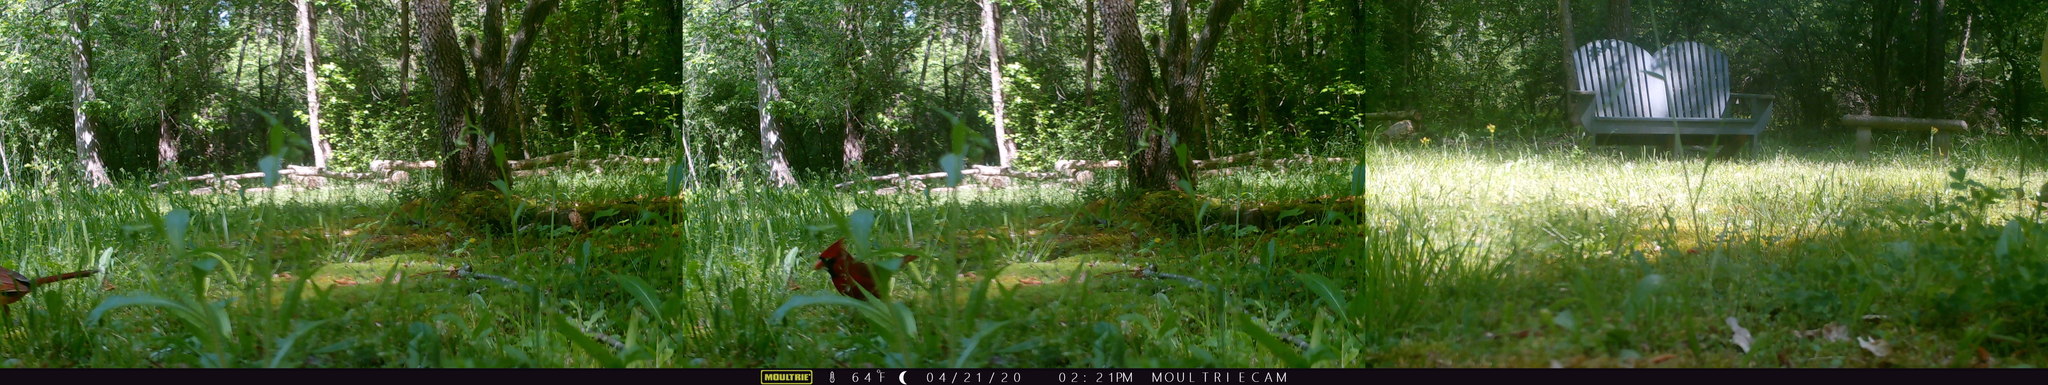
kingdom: Animalia
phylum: Chordata
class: Aves
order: Passeriformes
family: Cardinalidae
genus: Cardinalis
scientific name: Cardinalis cardinalis
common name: Northern cardinal
